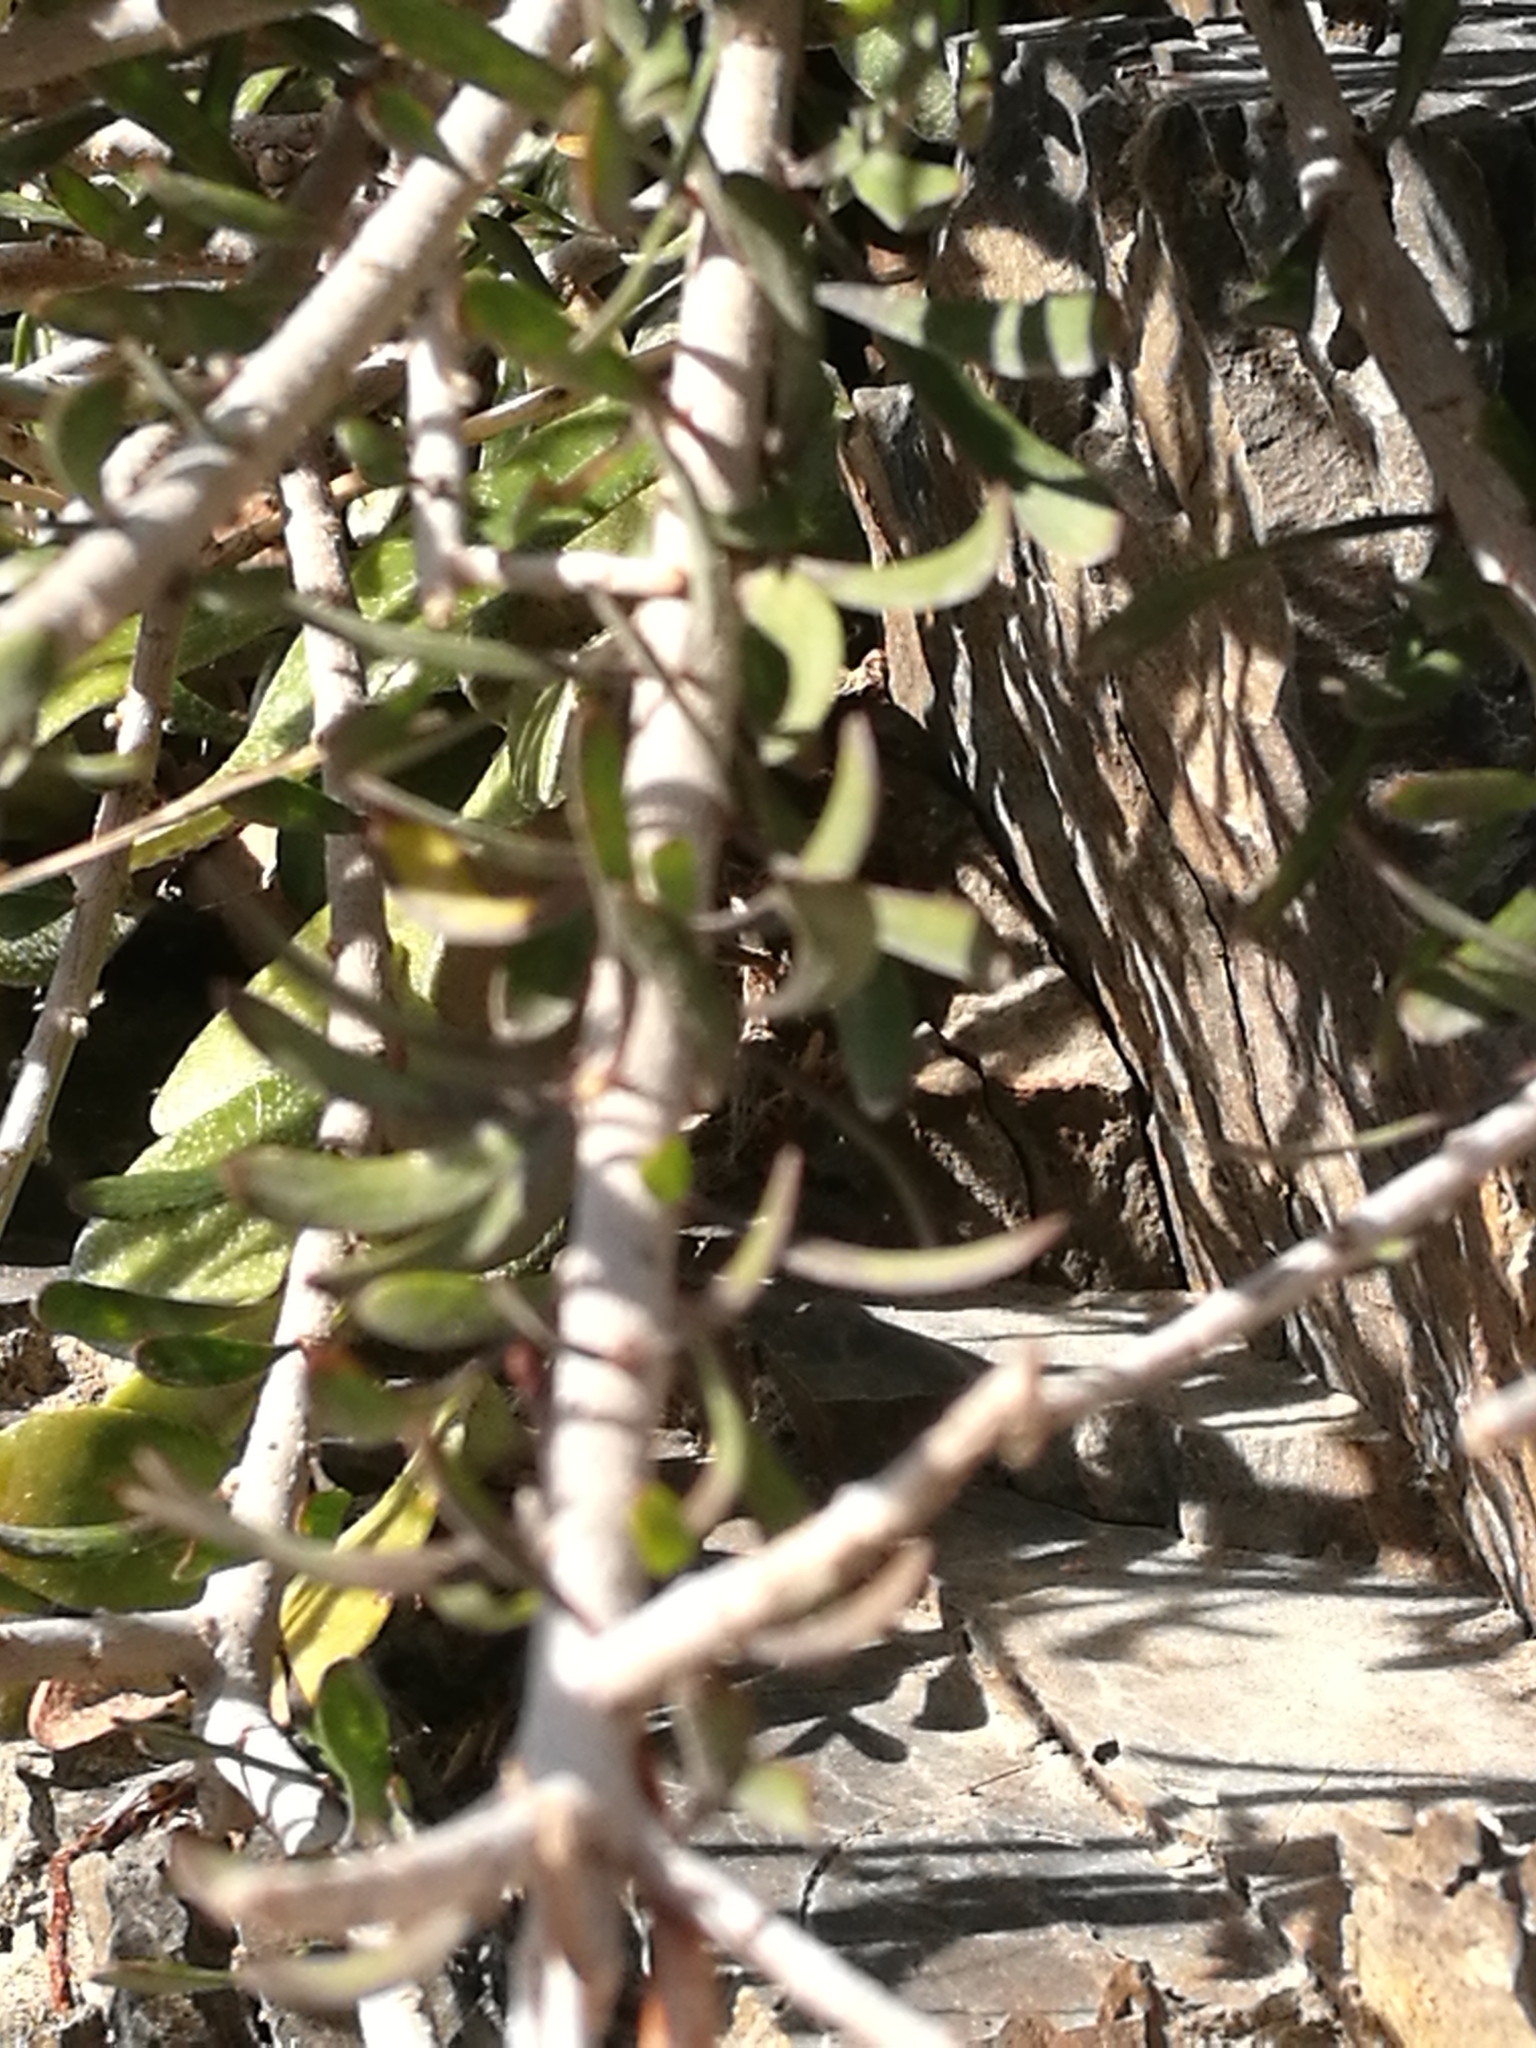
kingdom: Plantae
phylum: Tracheophyta
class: Magnoliopsida
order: Malpighiales
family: Violaceae
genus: Melicytus
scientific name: Melicytus alpinus
